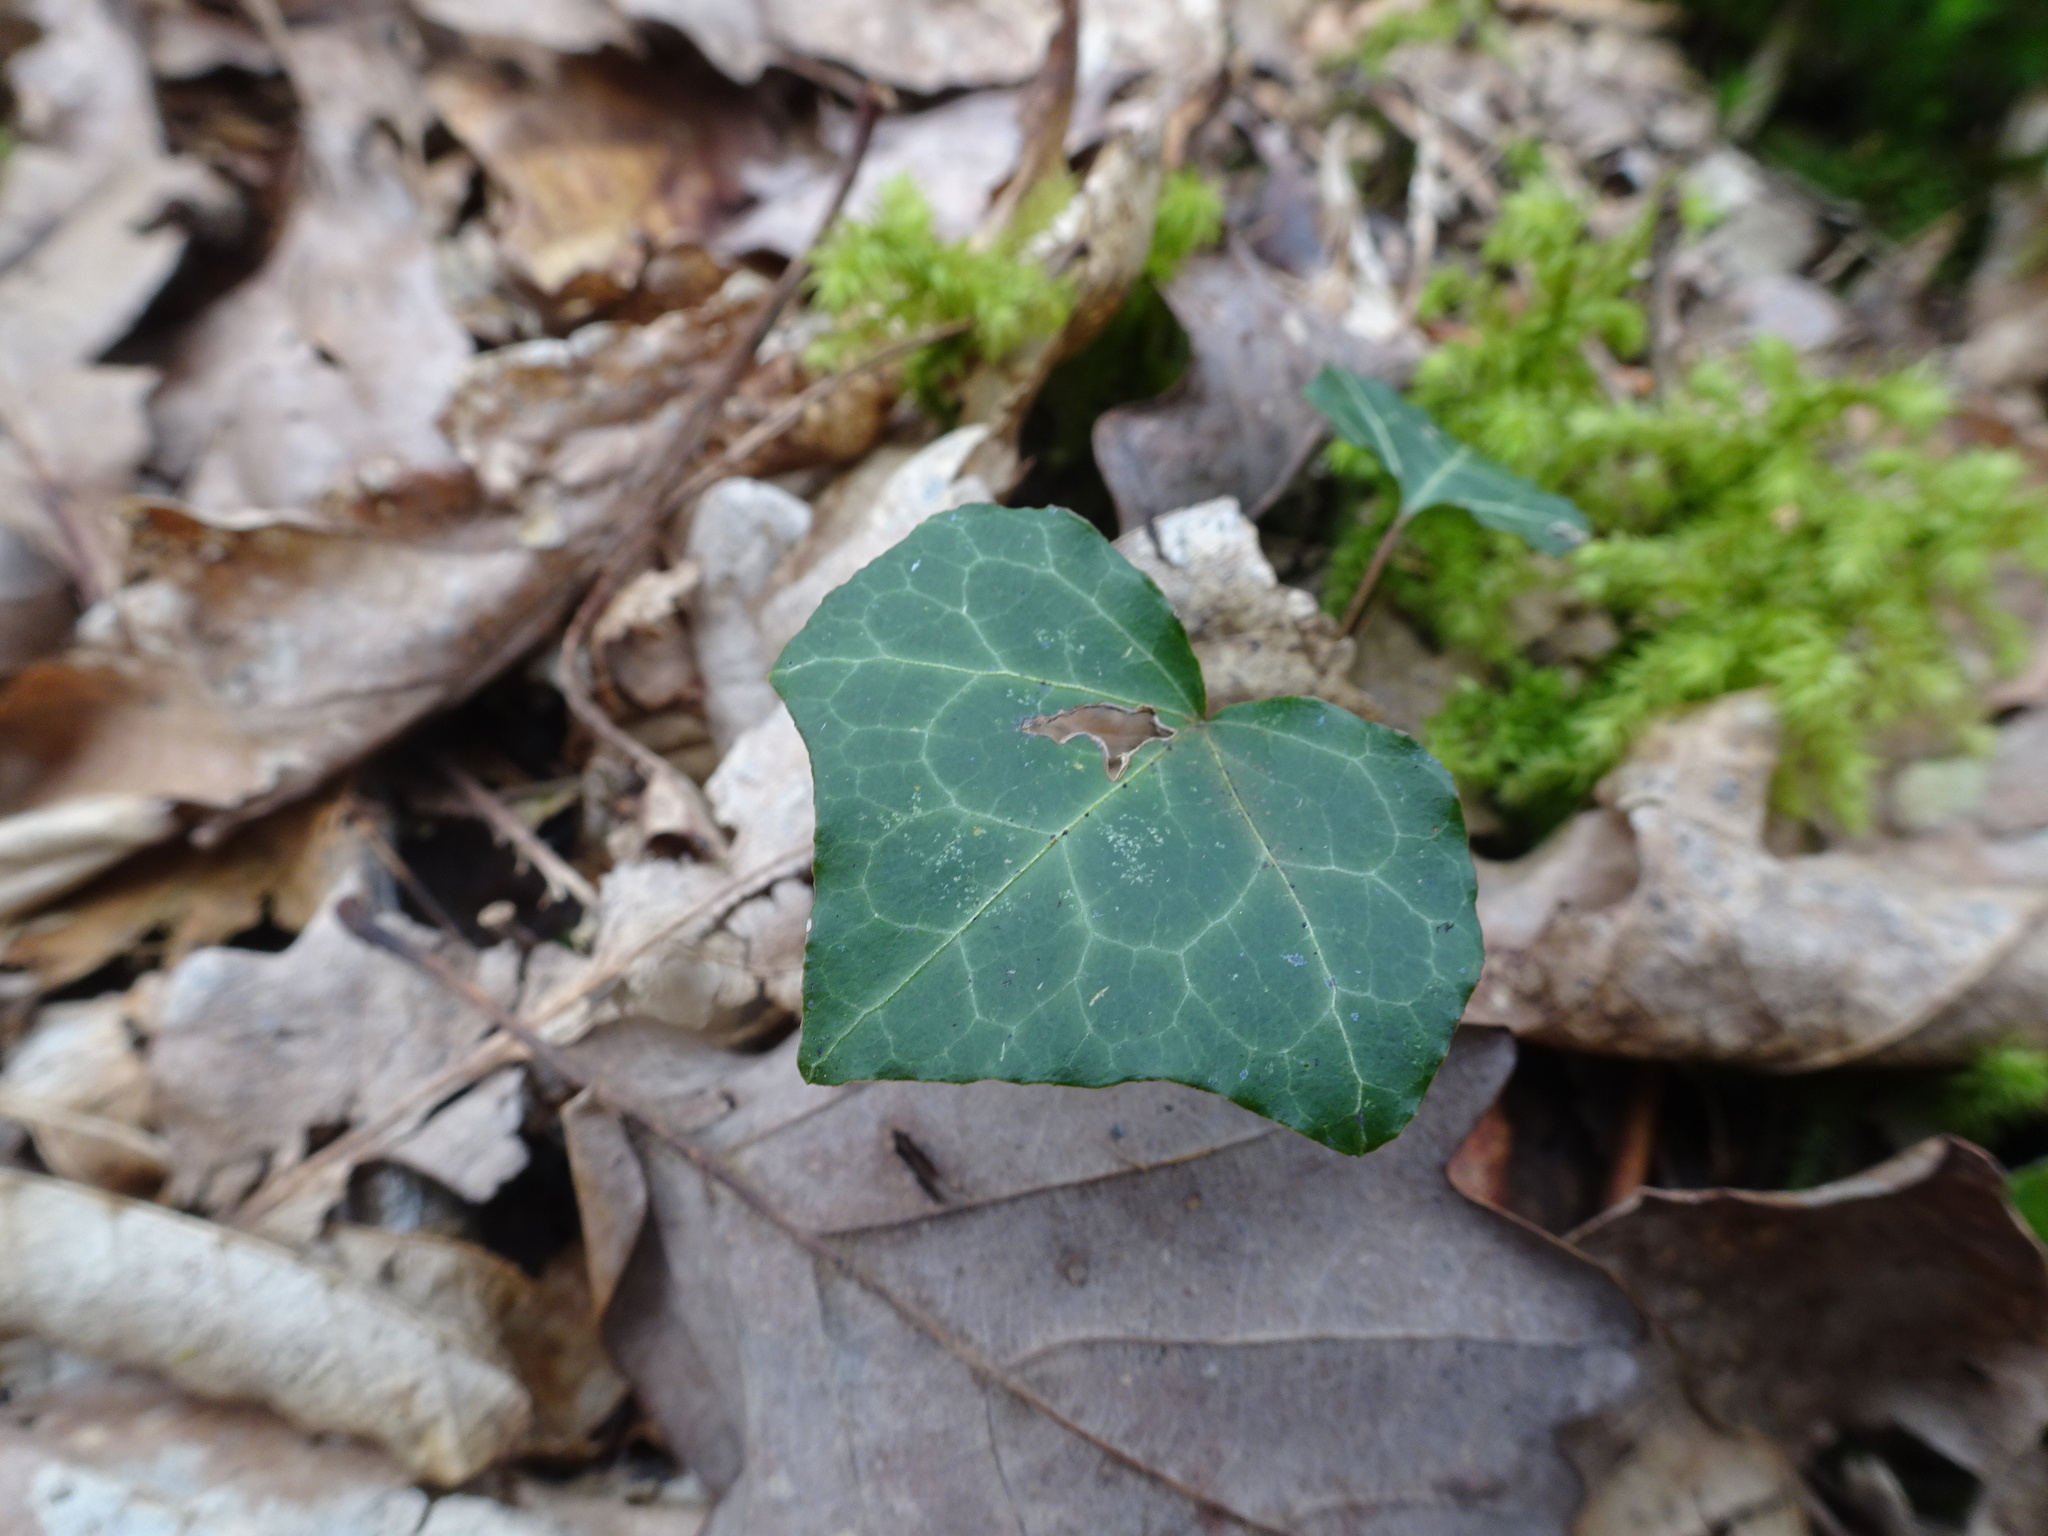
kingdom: Plantae
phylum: Tracheophyta
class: Magnoliopsida
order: Apiales
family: Araliaceae
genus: Hedera
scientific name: Hedera helix
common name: Ivy
